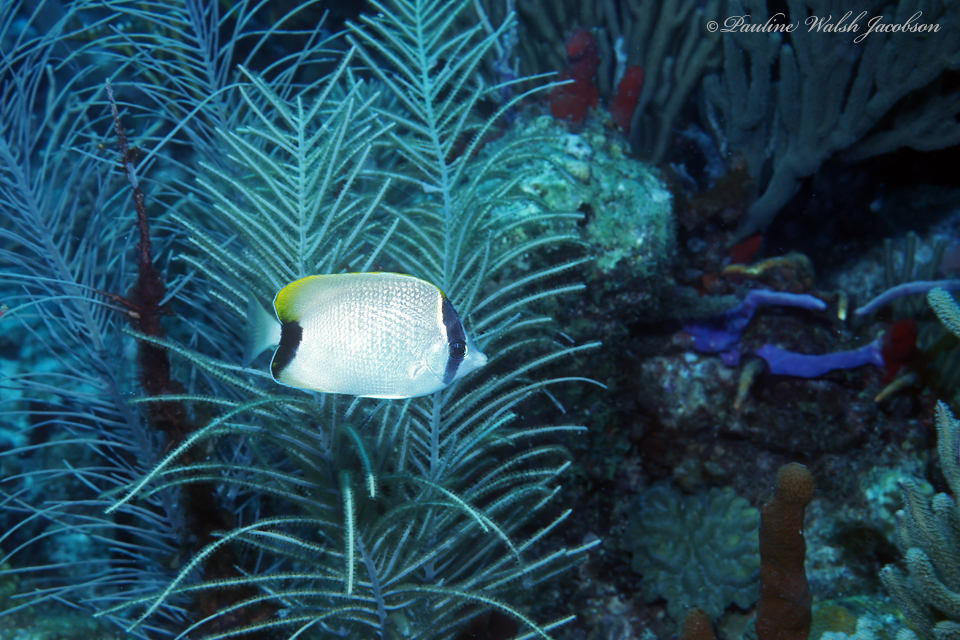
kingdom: Animalia
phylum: Chordata
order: Perciformes
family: Chaetodontidae
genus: Chaetodon
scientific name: Chaetodon sedentarius
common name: Reef butterflyfish
